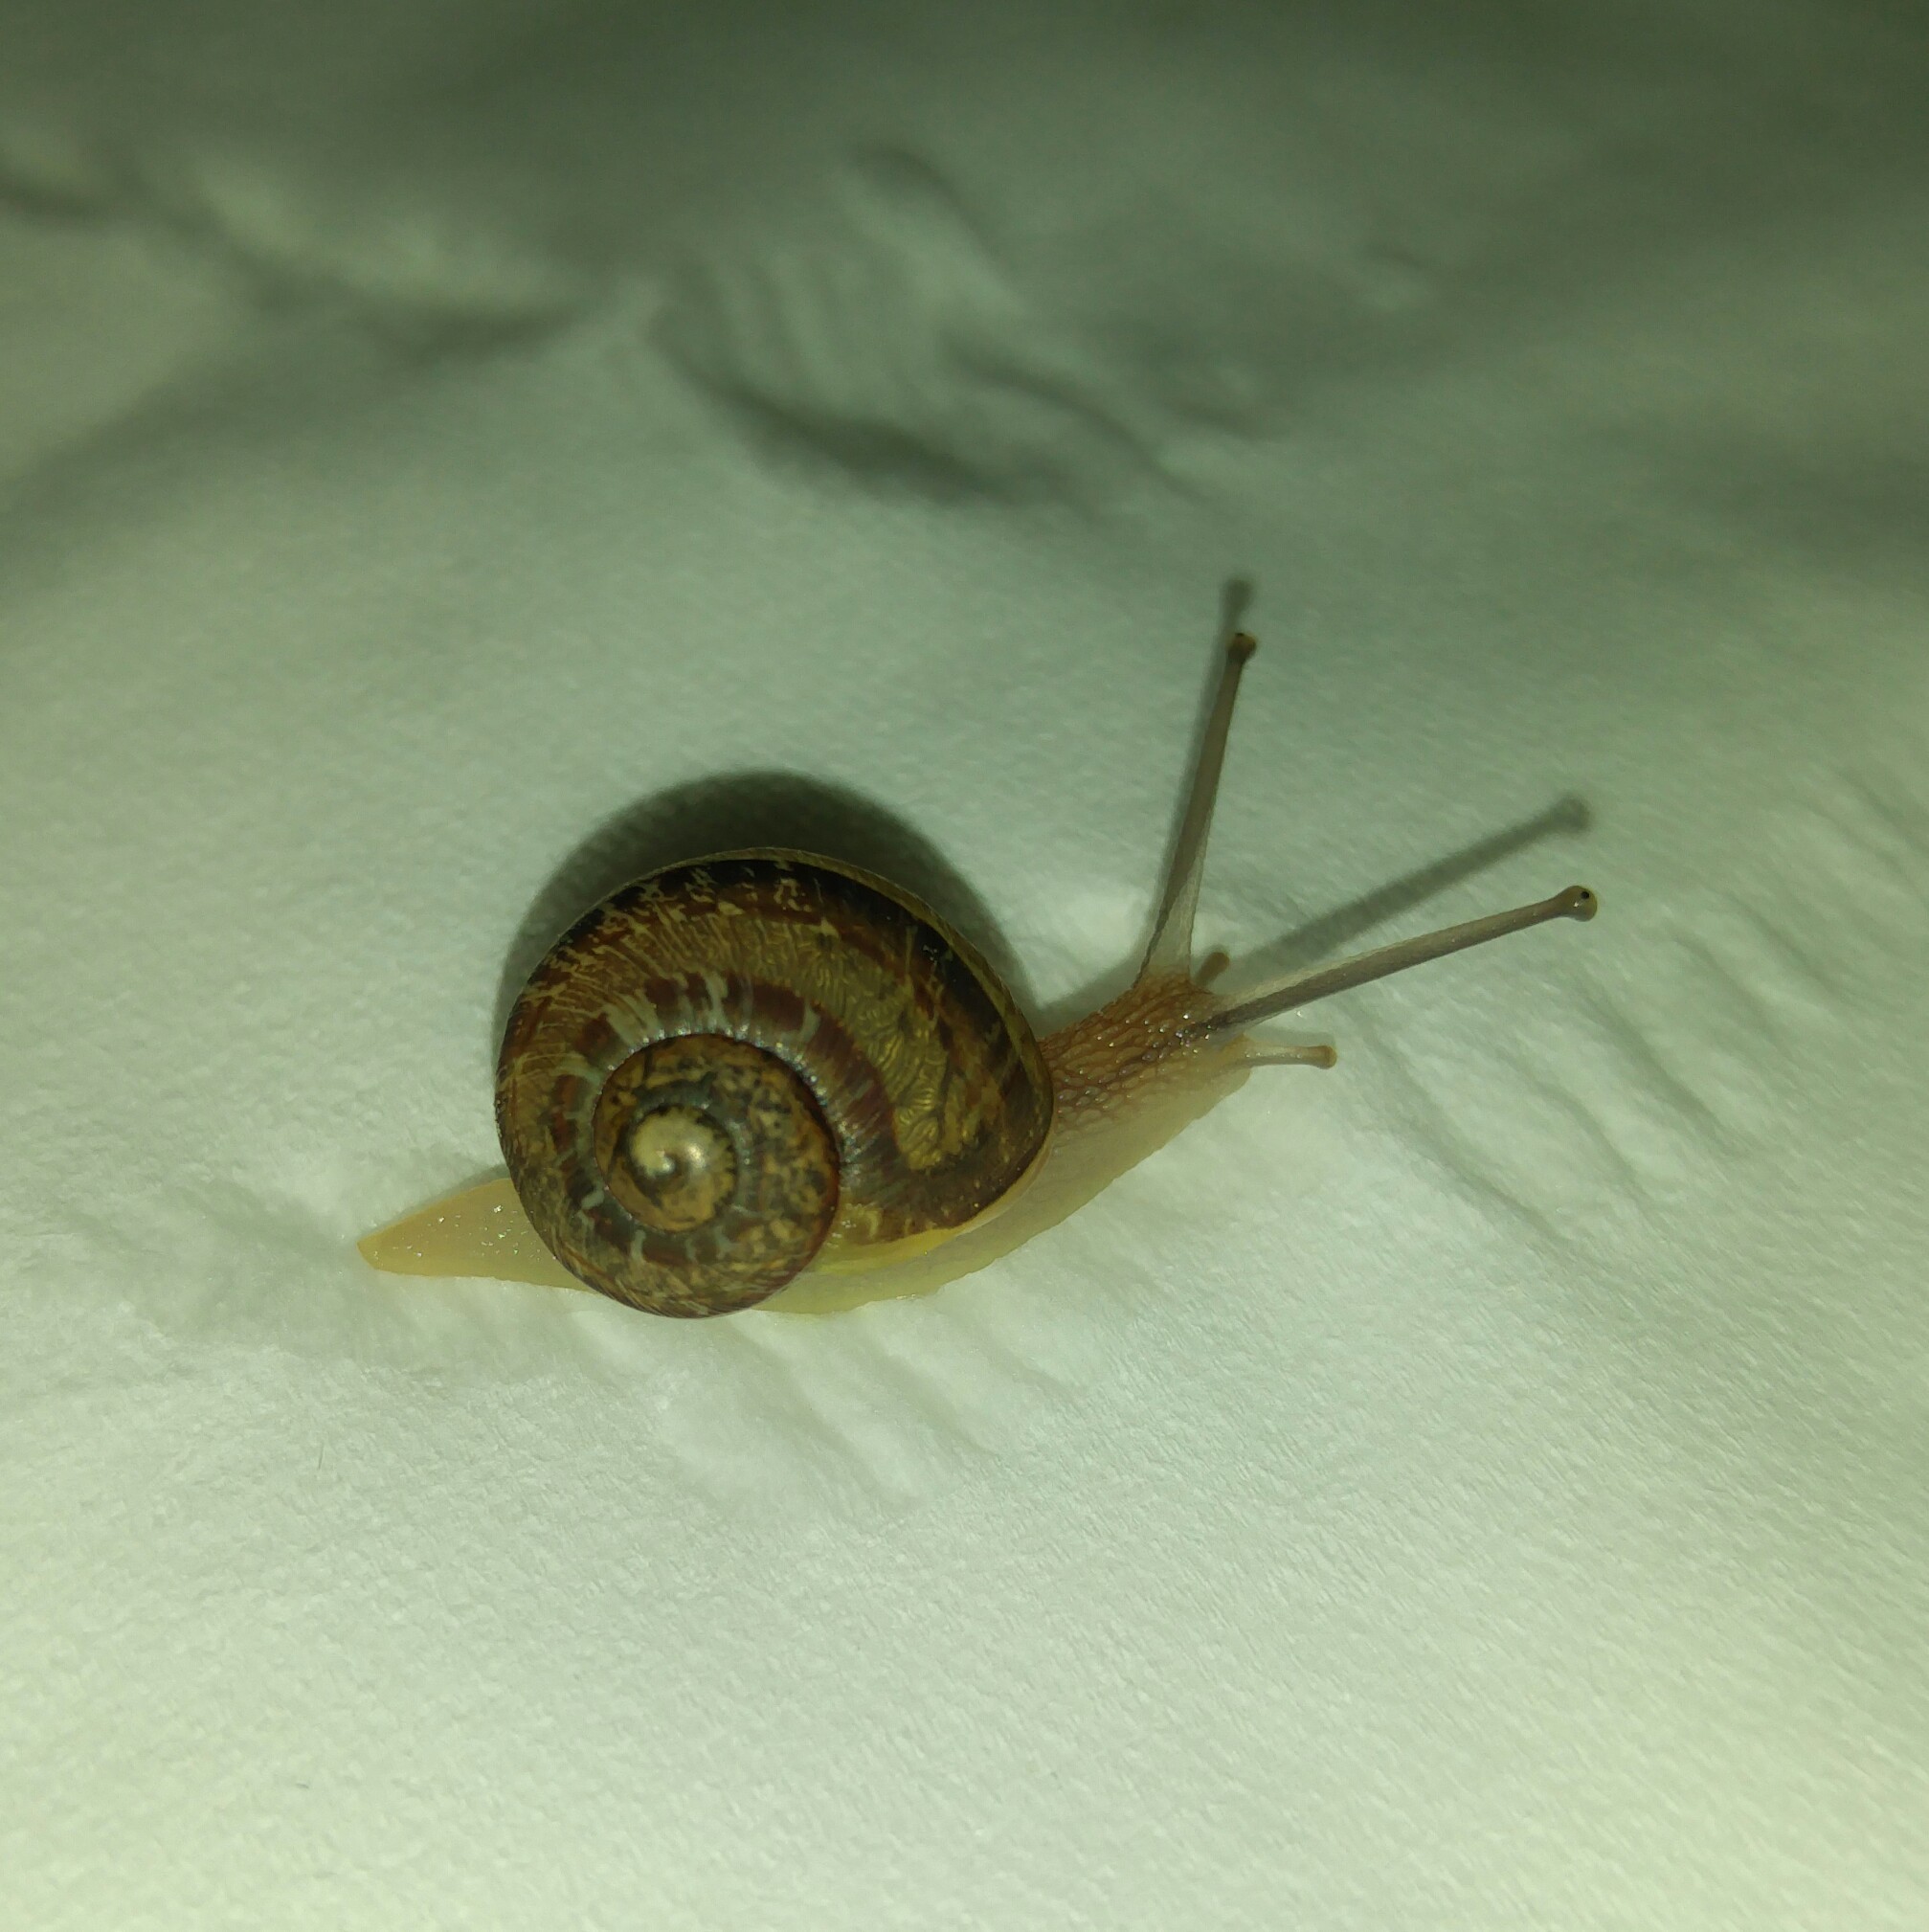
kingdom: Animalia
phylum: Mollusca
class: Gastropoda
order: Stylommatophora
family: Helicidae
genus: Cornu
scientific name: Cornu aspersum
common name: Brown garden snail
